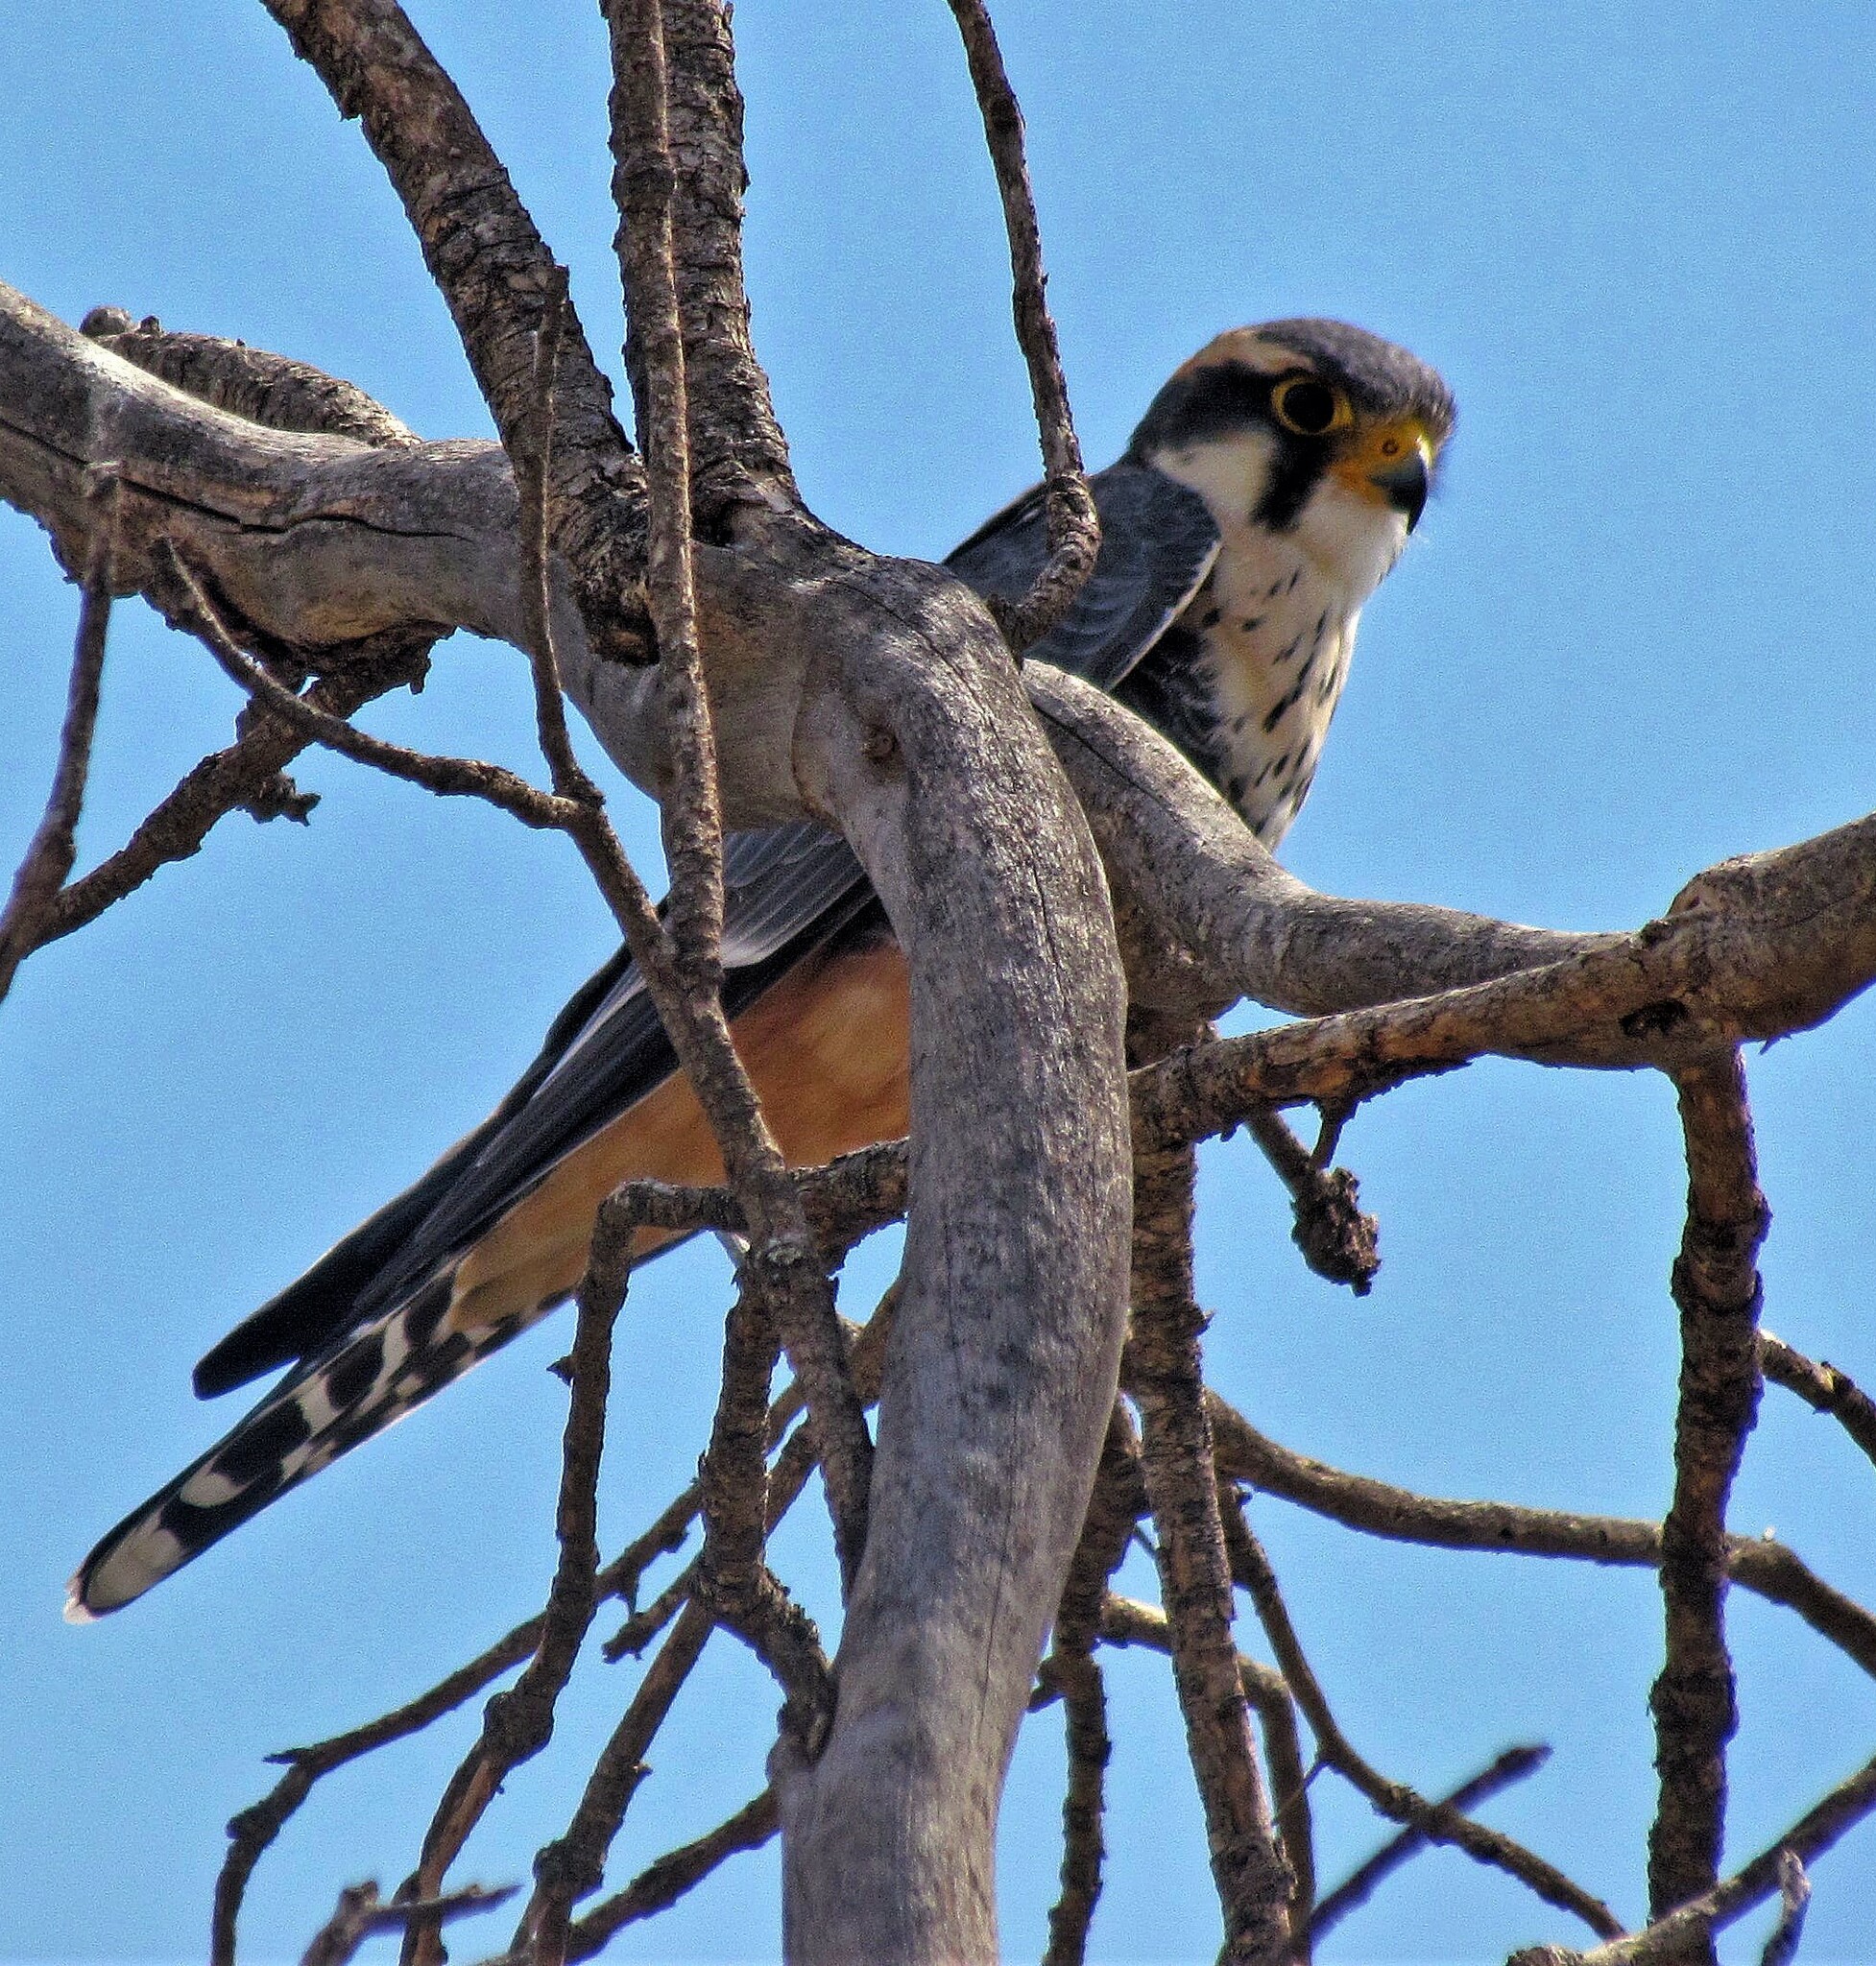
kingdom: Animalia
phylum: Chordata
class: Aves
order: Falconiformes
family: Falconidae
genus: Falco
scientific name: Falco femoralis
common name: Aplomado falcon
